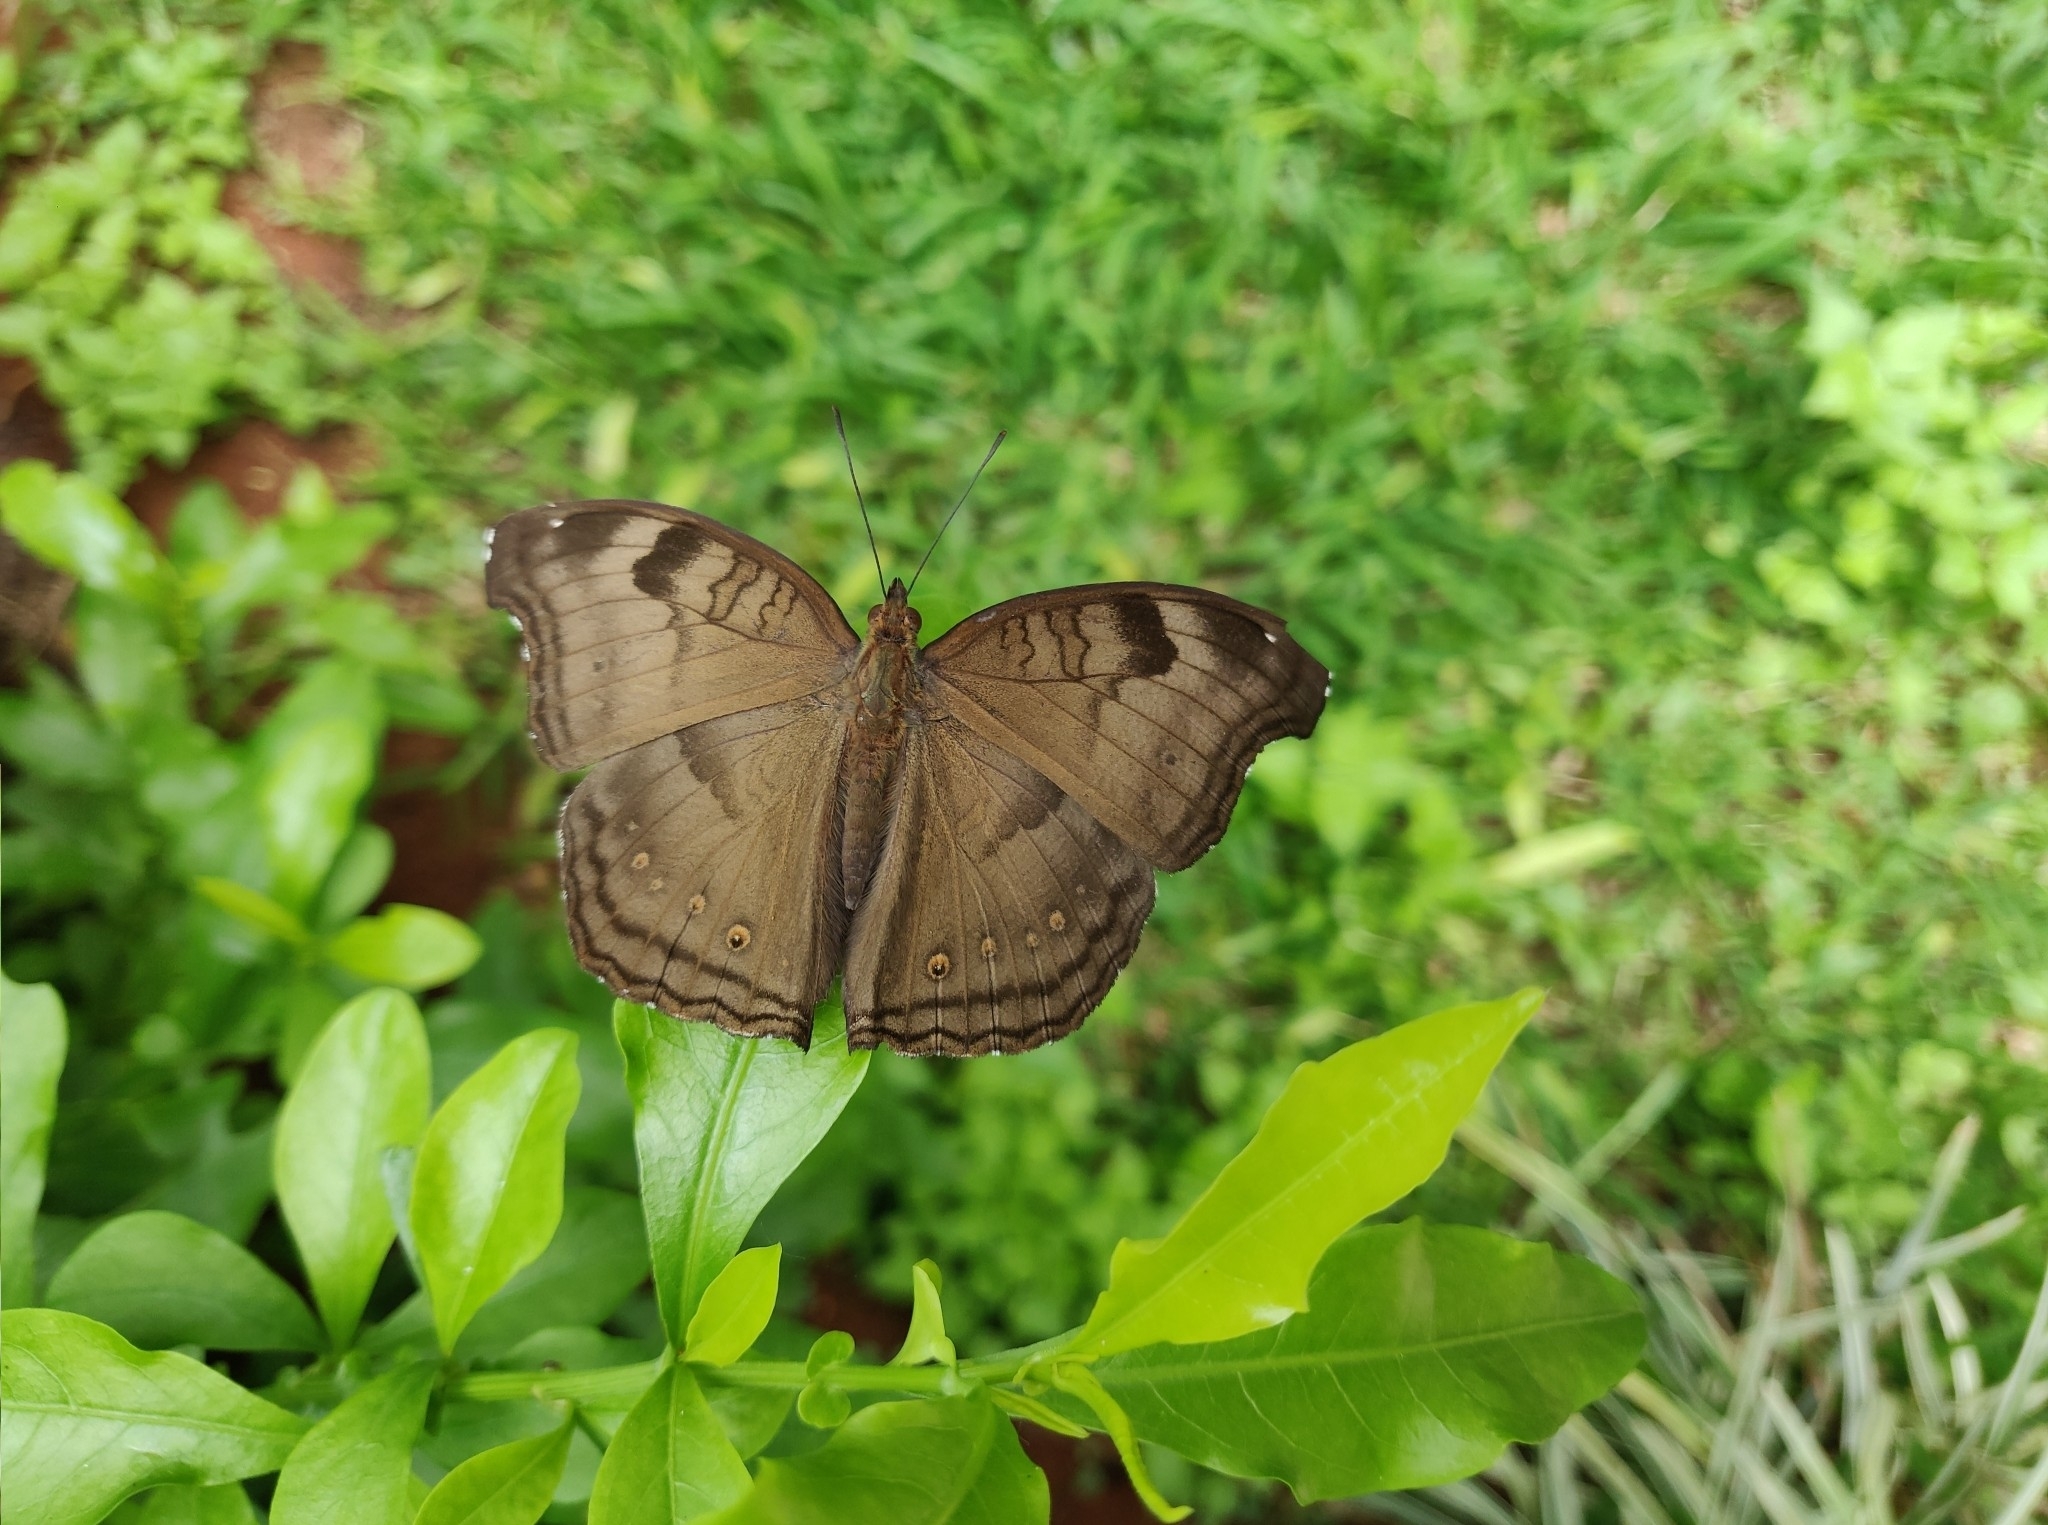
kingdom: Animalia
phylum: Arthropoda
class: Insecta
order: Lepidoptera
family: Nymphalidae
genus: Junonia
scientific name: Junonia iphita
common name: Chocolate pansy
